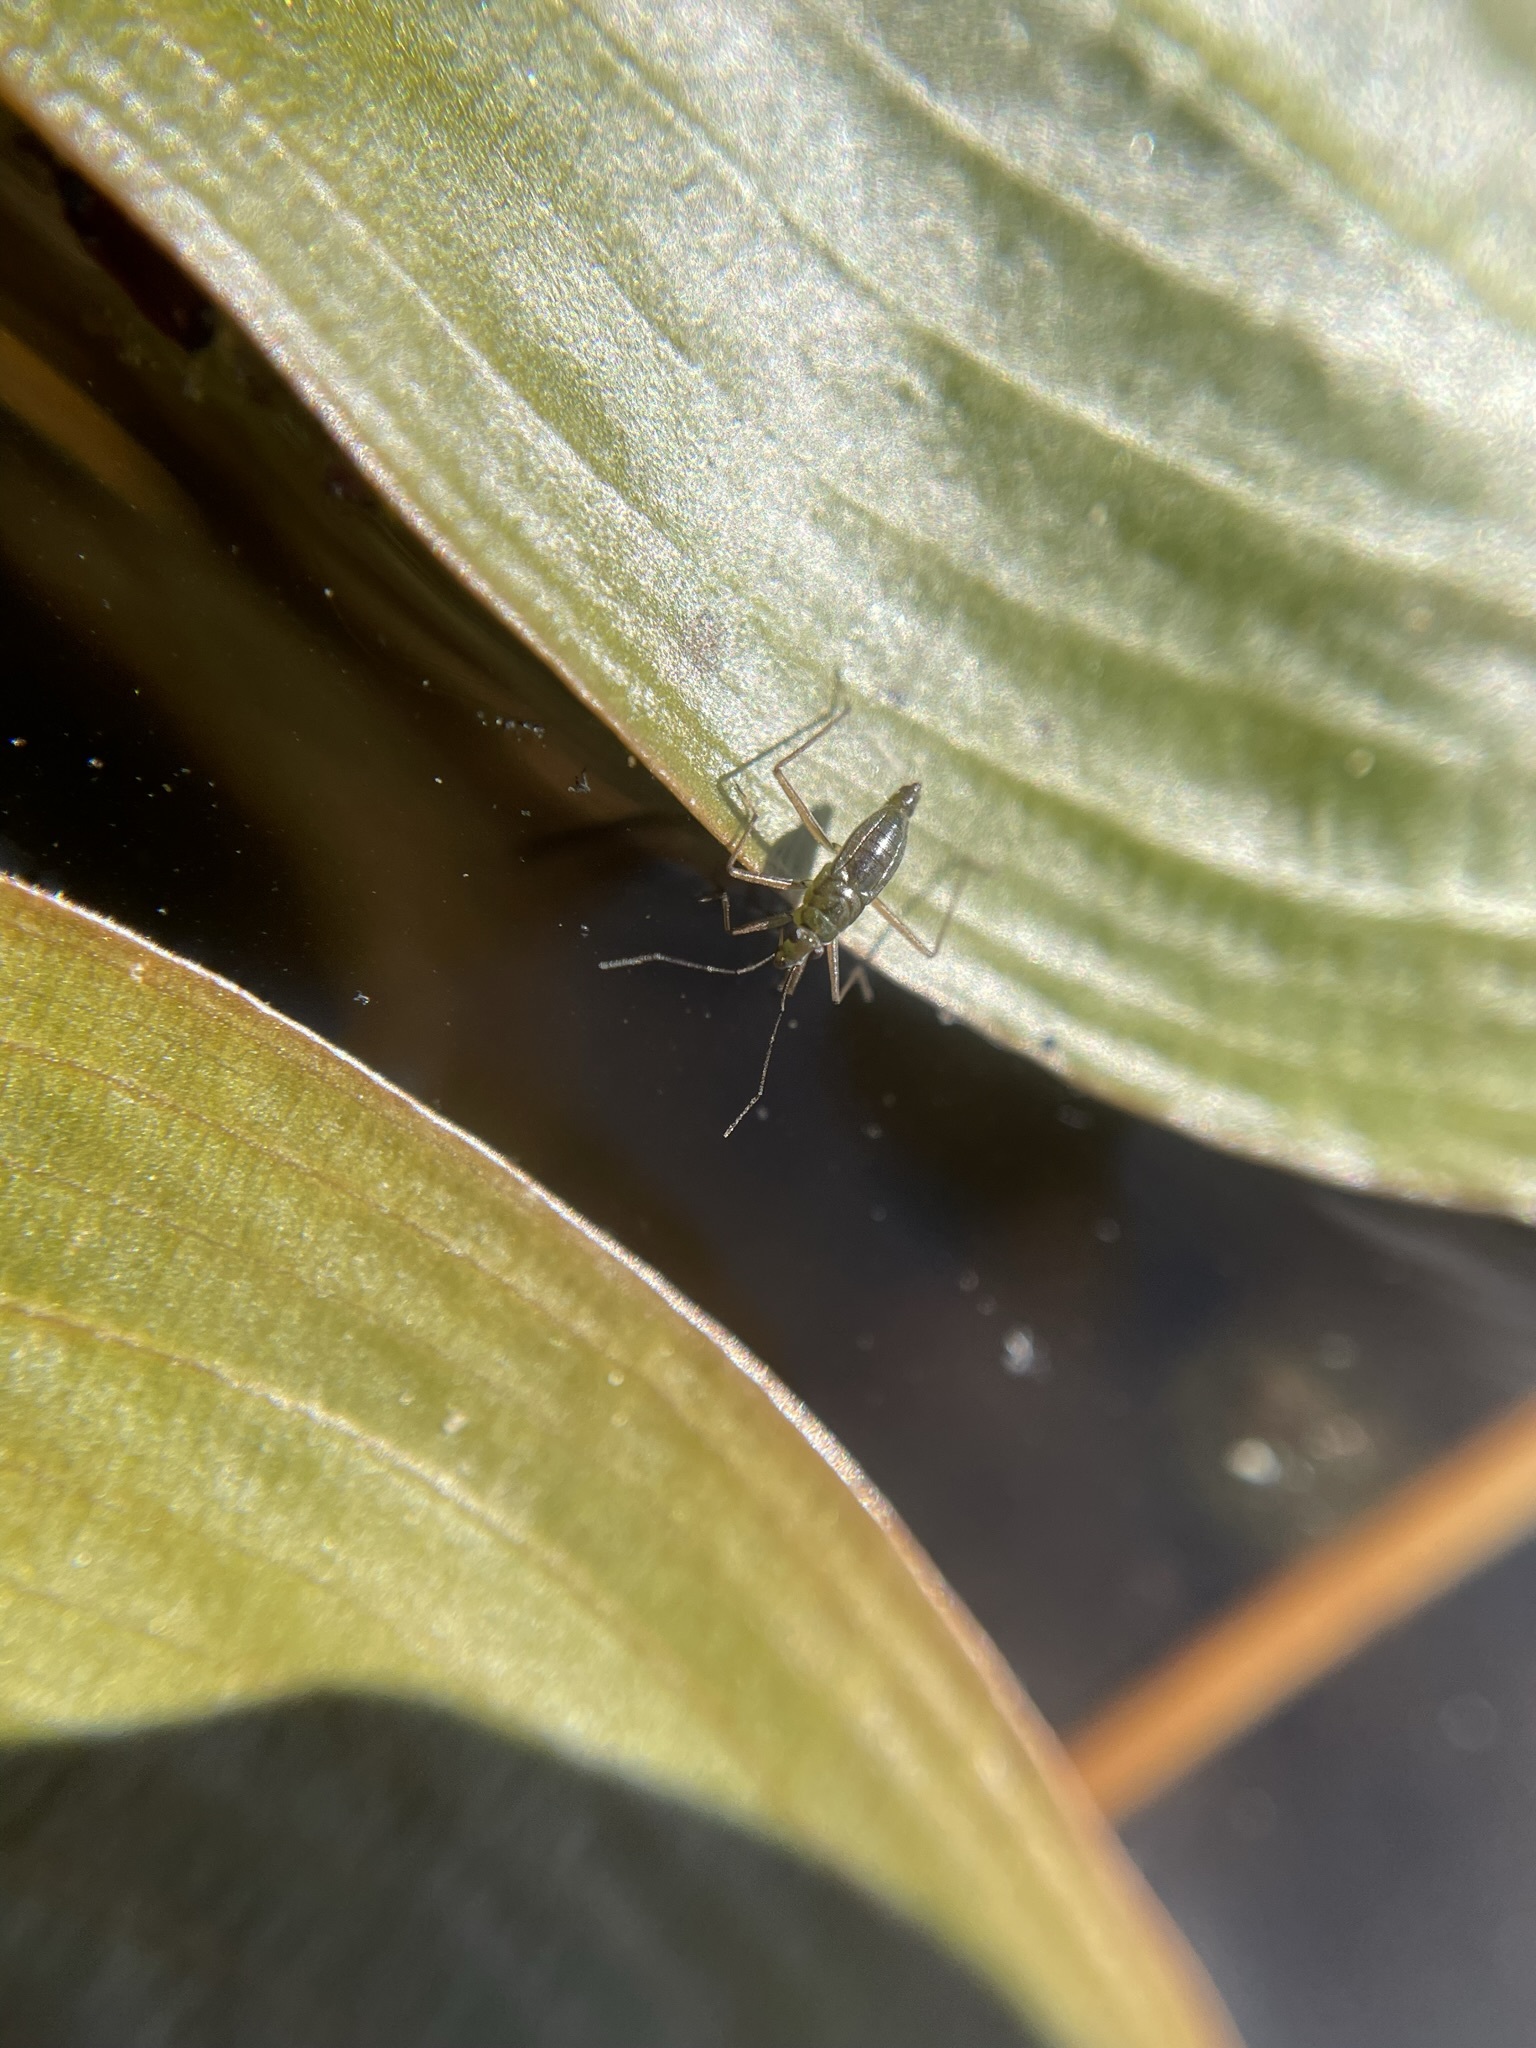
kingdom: Animalia
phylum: Arthropoda
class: Insecta
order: Hemiptera
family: Mesoveliidae
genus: Mesovelia
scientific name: Mesovelia mulsanti
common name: Water treaders
